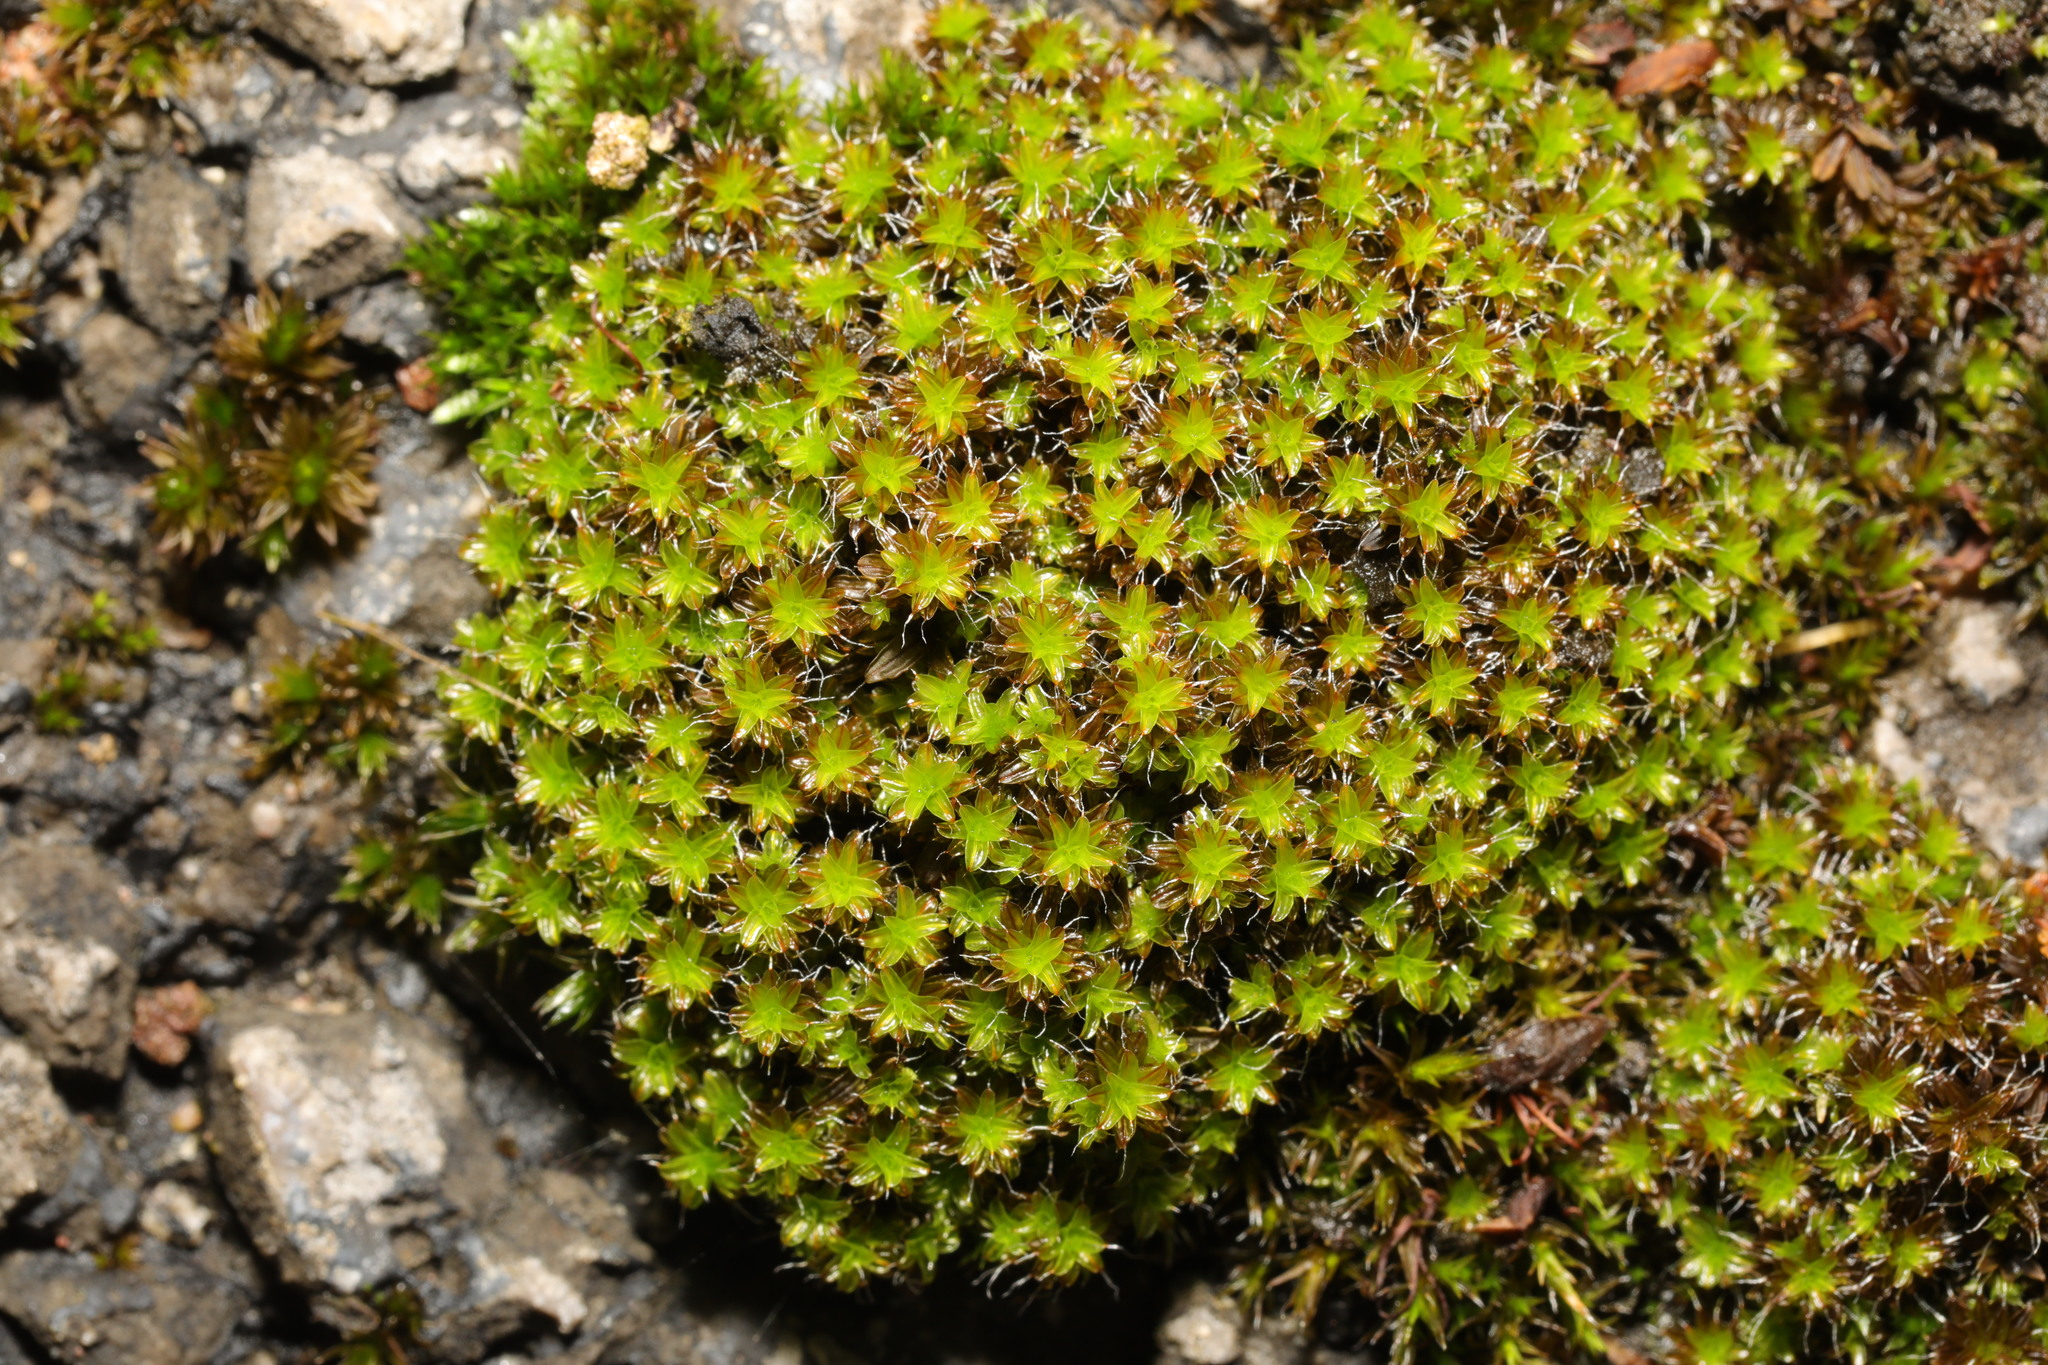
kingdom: Plantae
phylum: Bryophyta
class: Bryopsida
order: Pottiales
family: Pottiaceae
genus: Syntrichia
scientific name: Syntrichia ruralis
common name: Sidewalk screw moss
